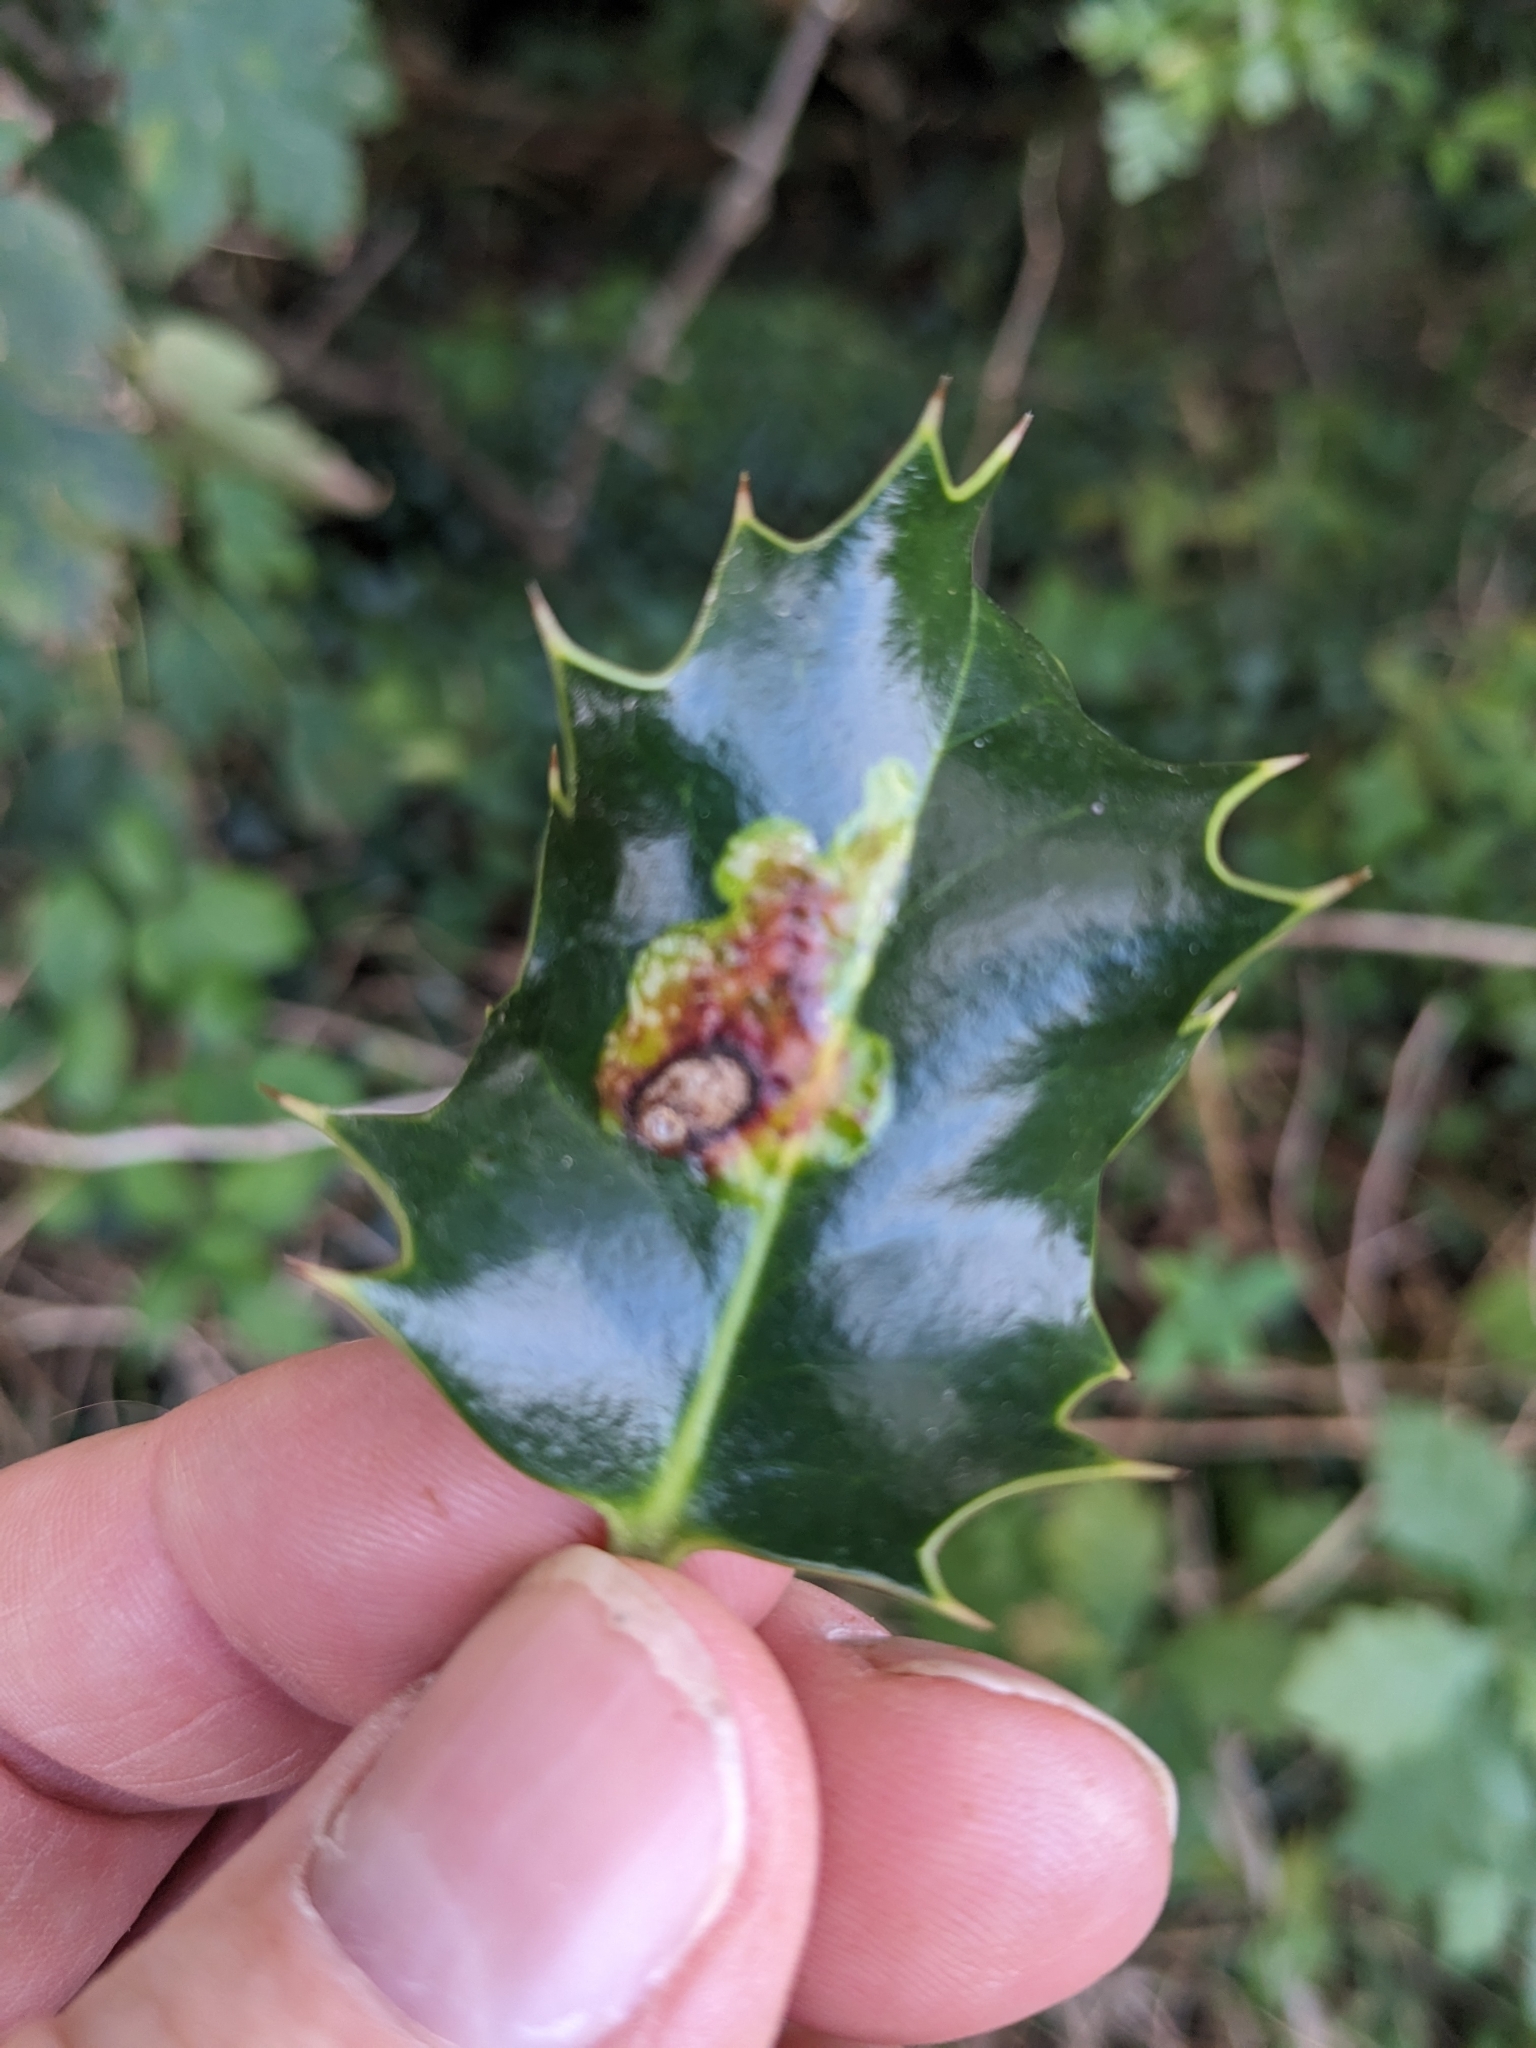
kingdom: Animalia
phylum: Arthropoda
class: Insecta
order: Diptera
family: Agromyzidae
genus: Phytomyza
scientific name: Phytomyza ilicis
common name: Holly leafminer
